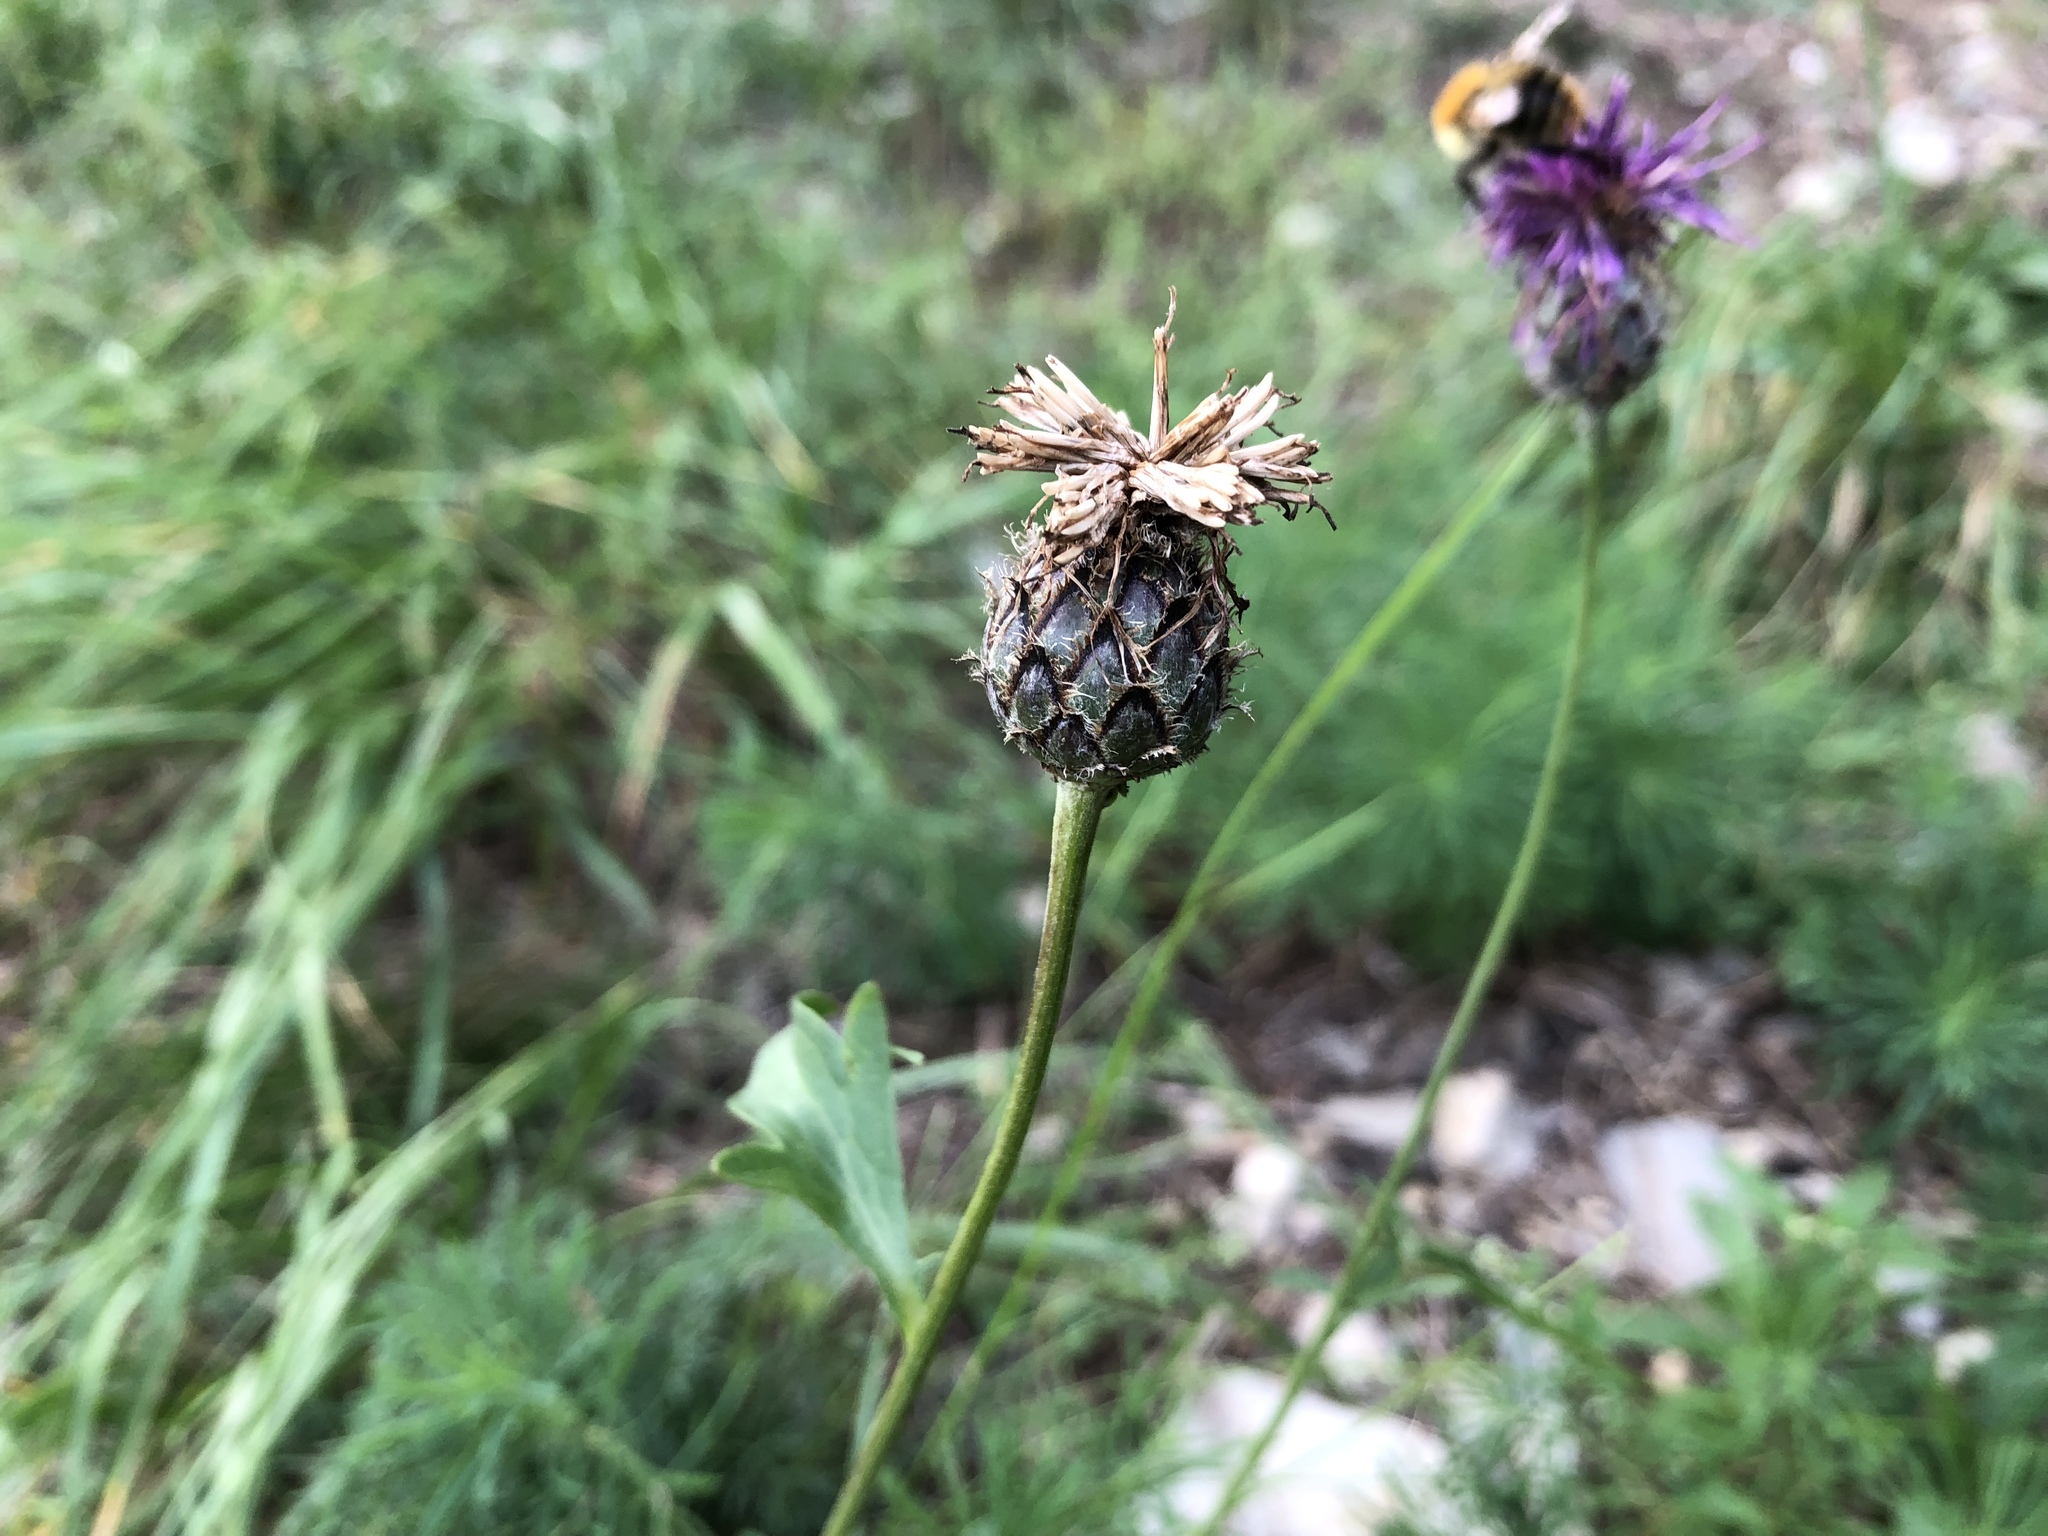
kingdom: Plantae
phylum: Tracheophyta
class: Magnoliopsida
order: Asterales
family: Asteraceae
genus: Centaurea
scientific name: Centaurea scabiosa
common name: Greater knapweed
